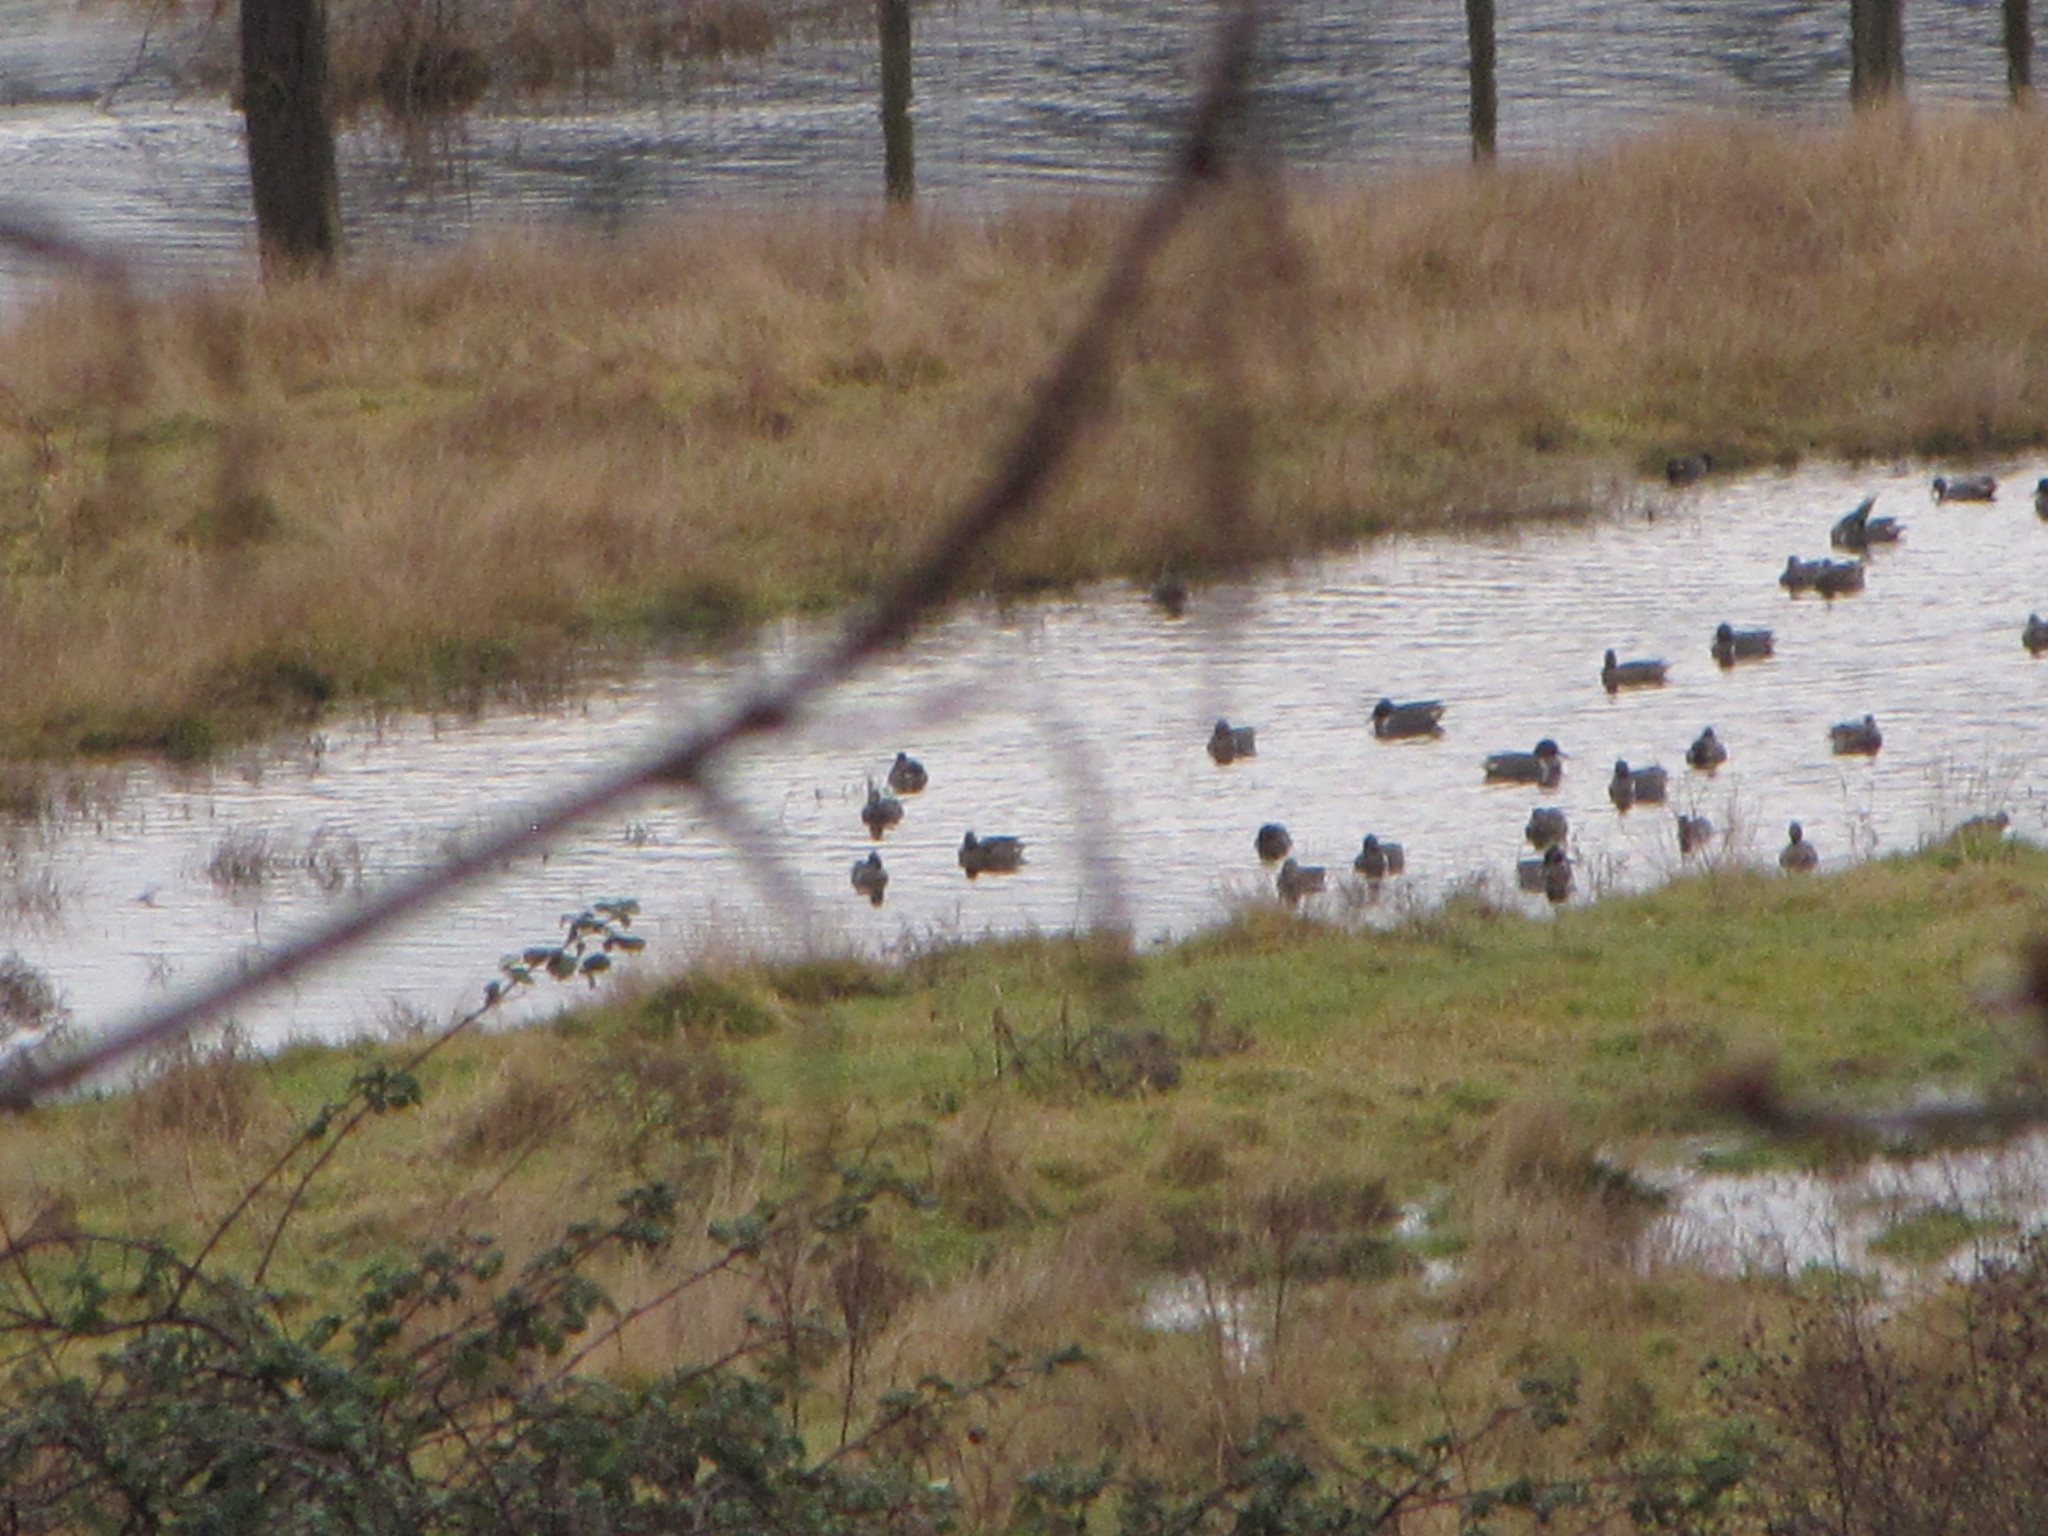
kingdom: Animalia
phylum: Chordata
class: Aves
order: Anseriformes
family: Anatidae
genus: Anas
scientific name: Anas crecca
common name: Eurasian teal
